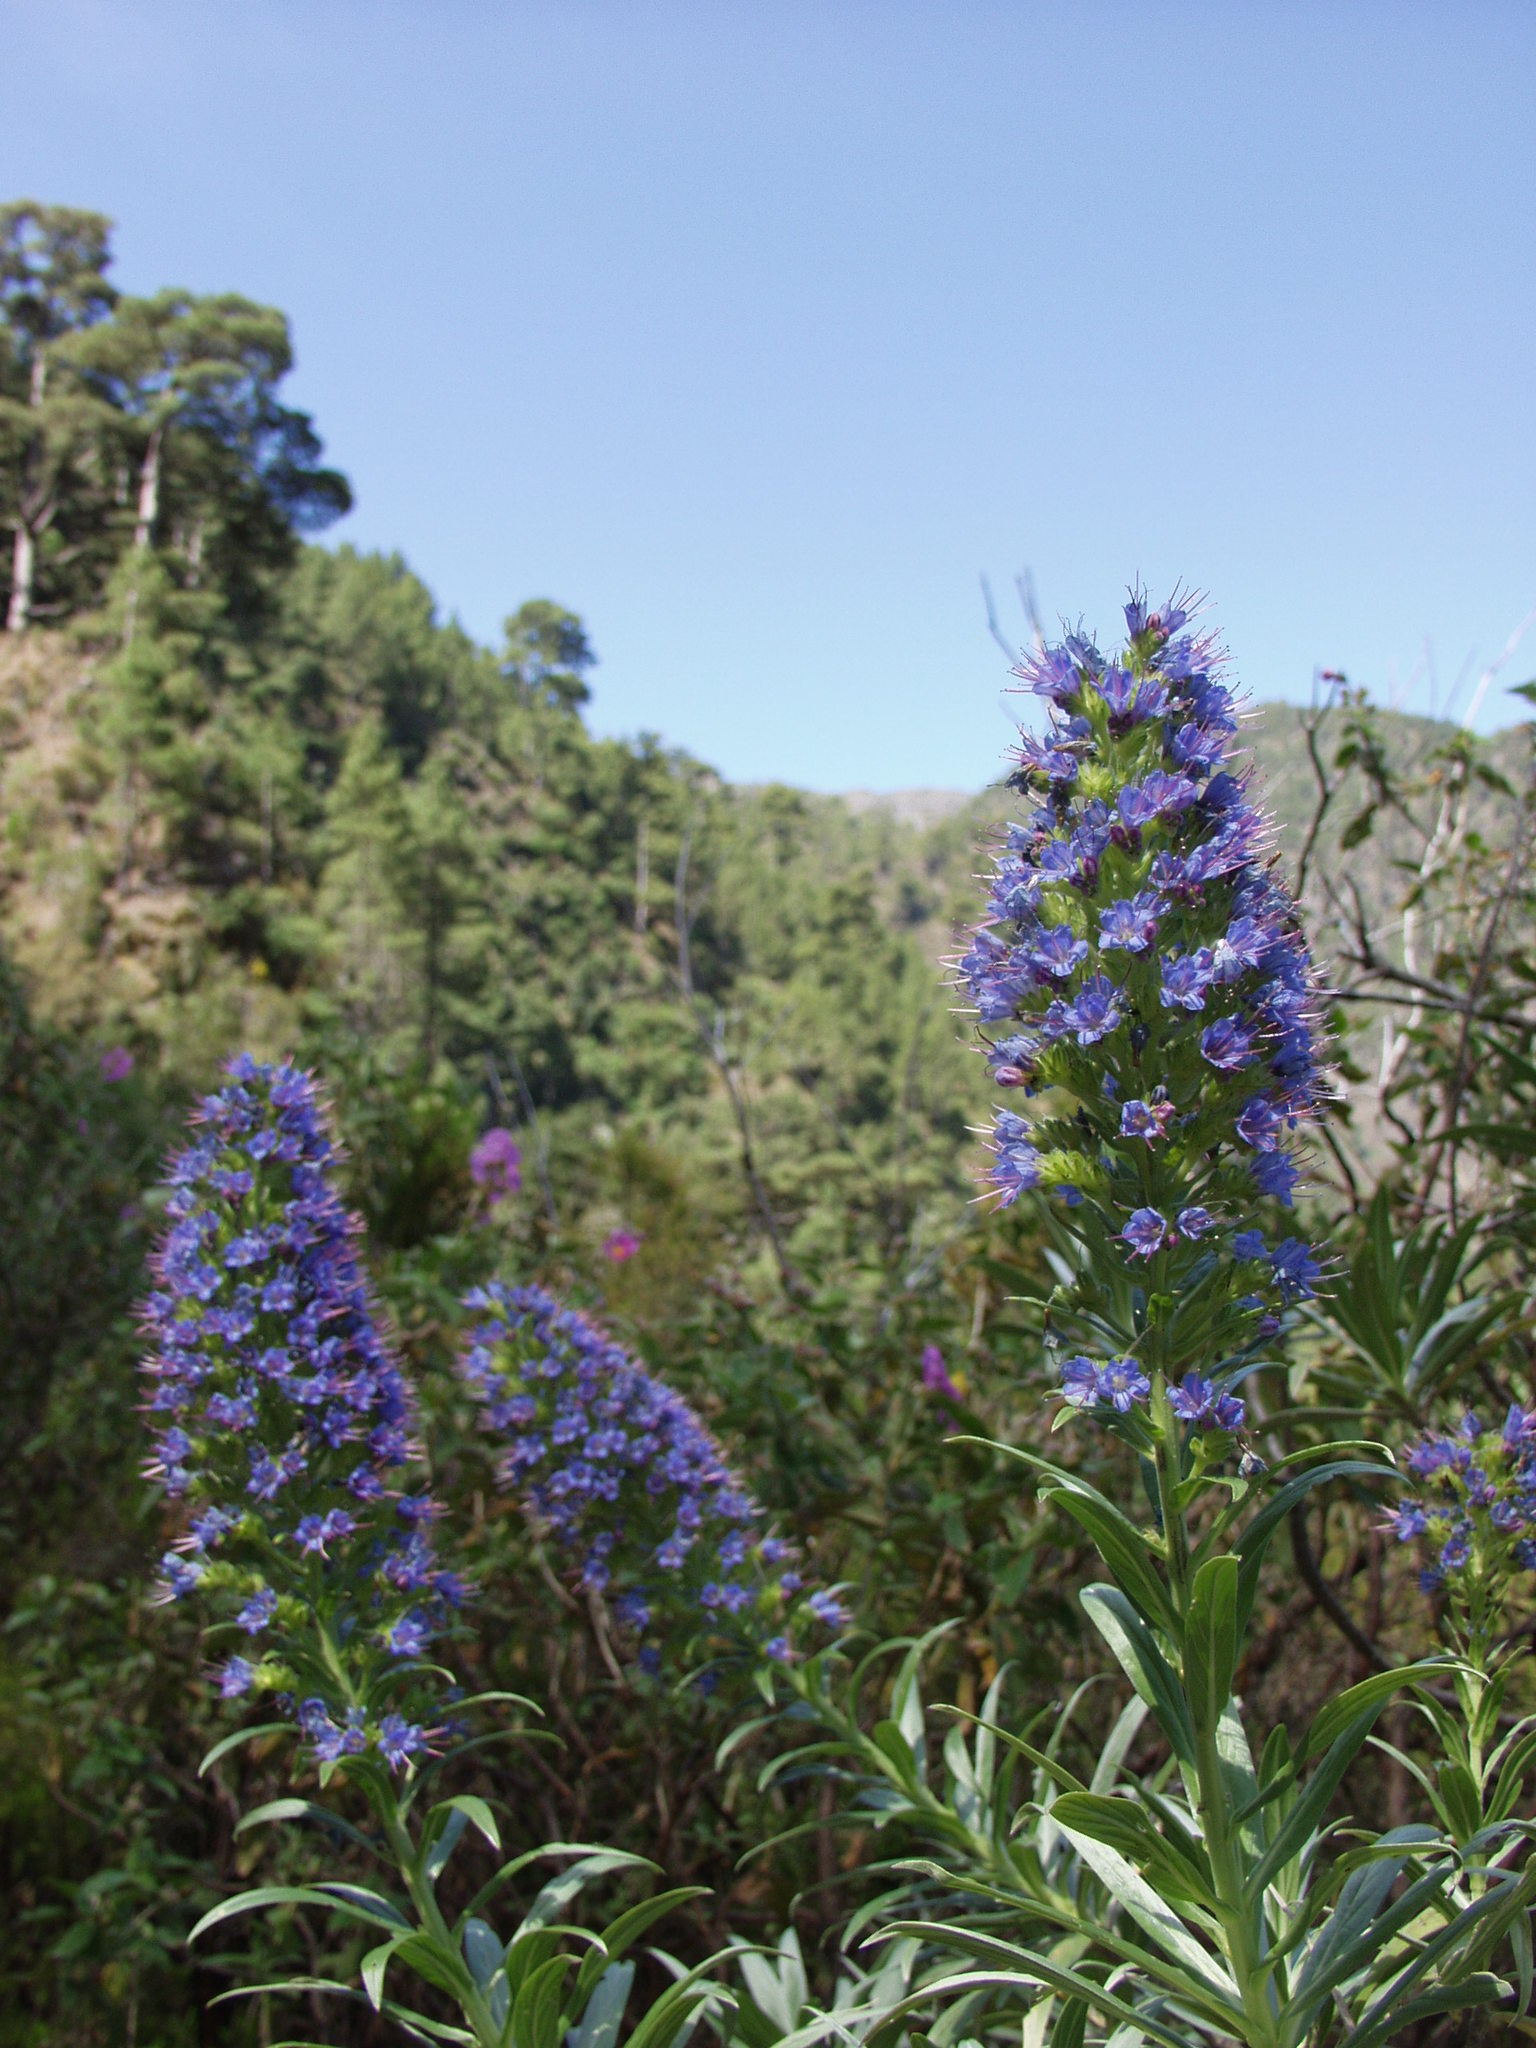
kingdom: Plantae
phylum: Tracheophyta
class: Magnoliopsida
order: Boraginales
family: Boraginaceae
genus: Echium
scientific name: Echium webbii
